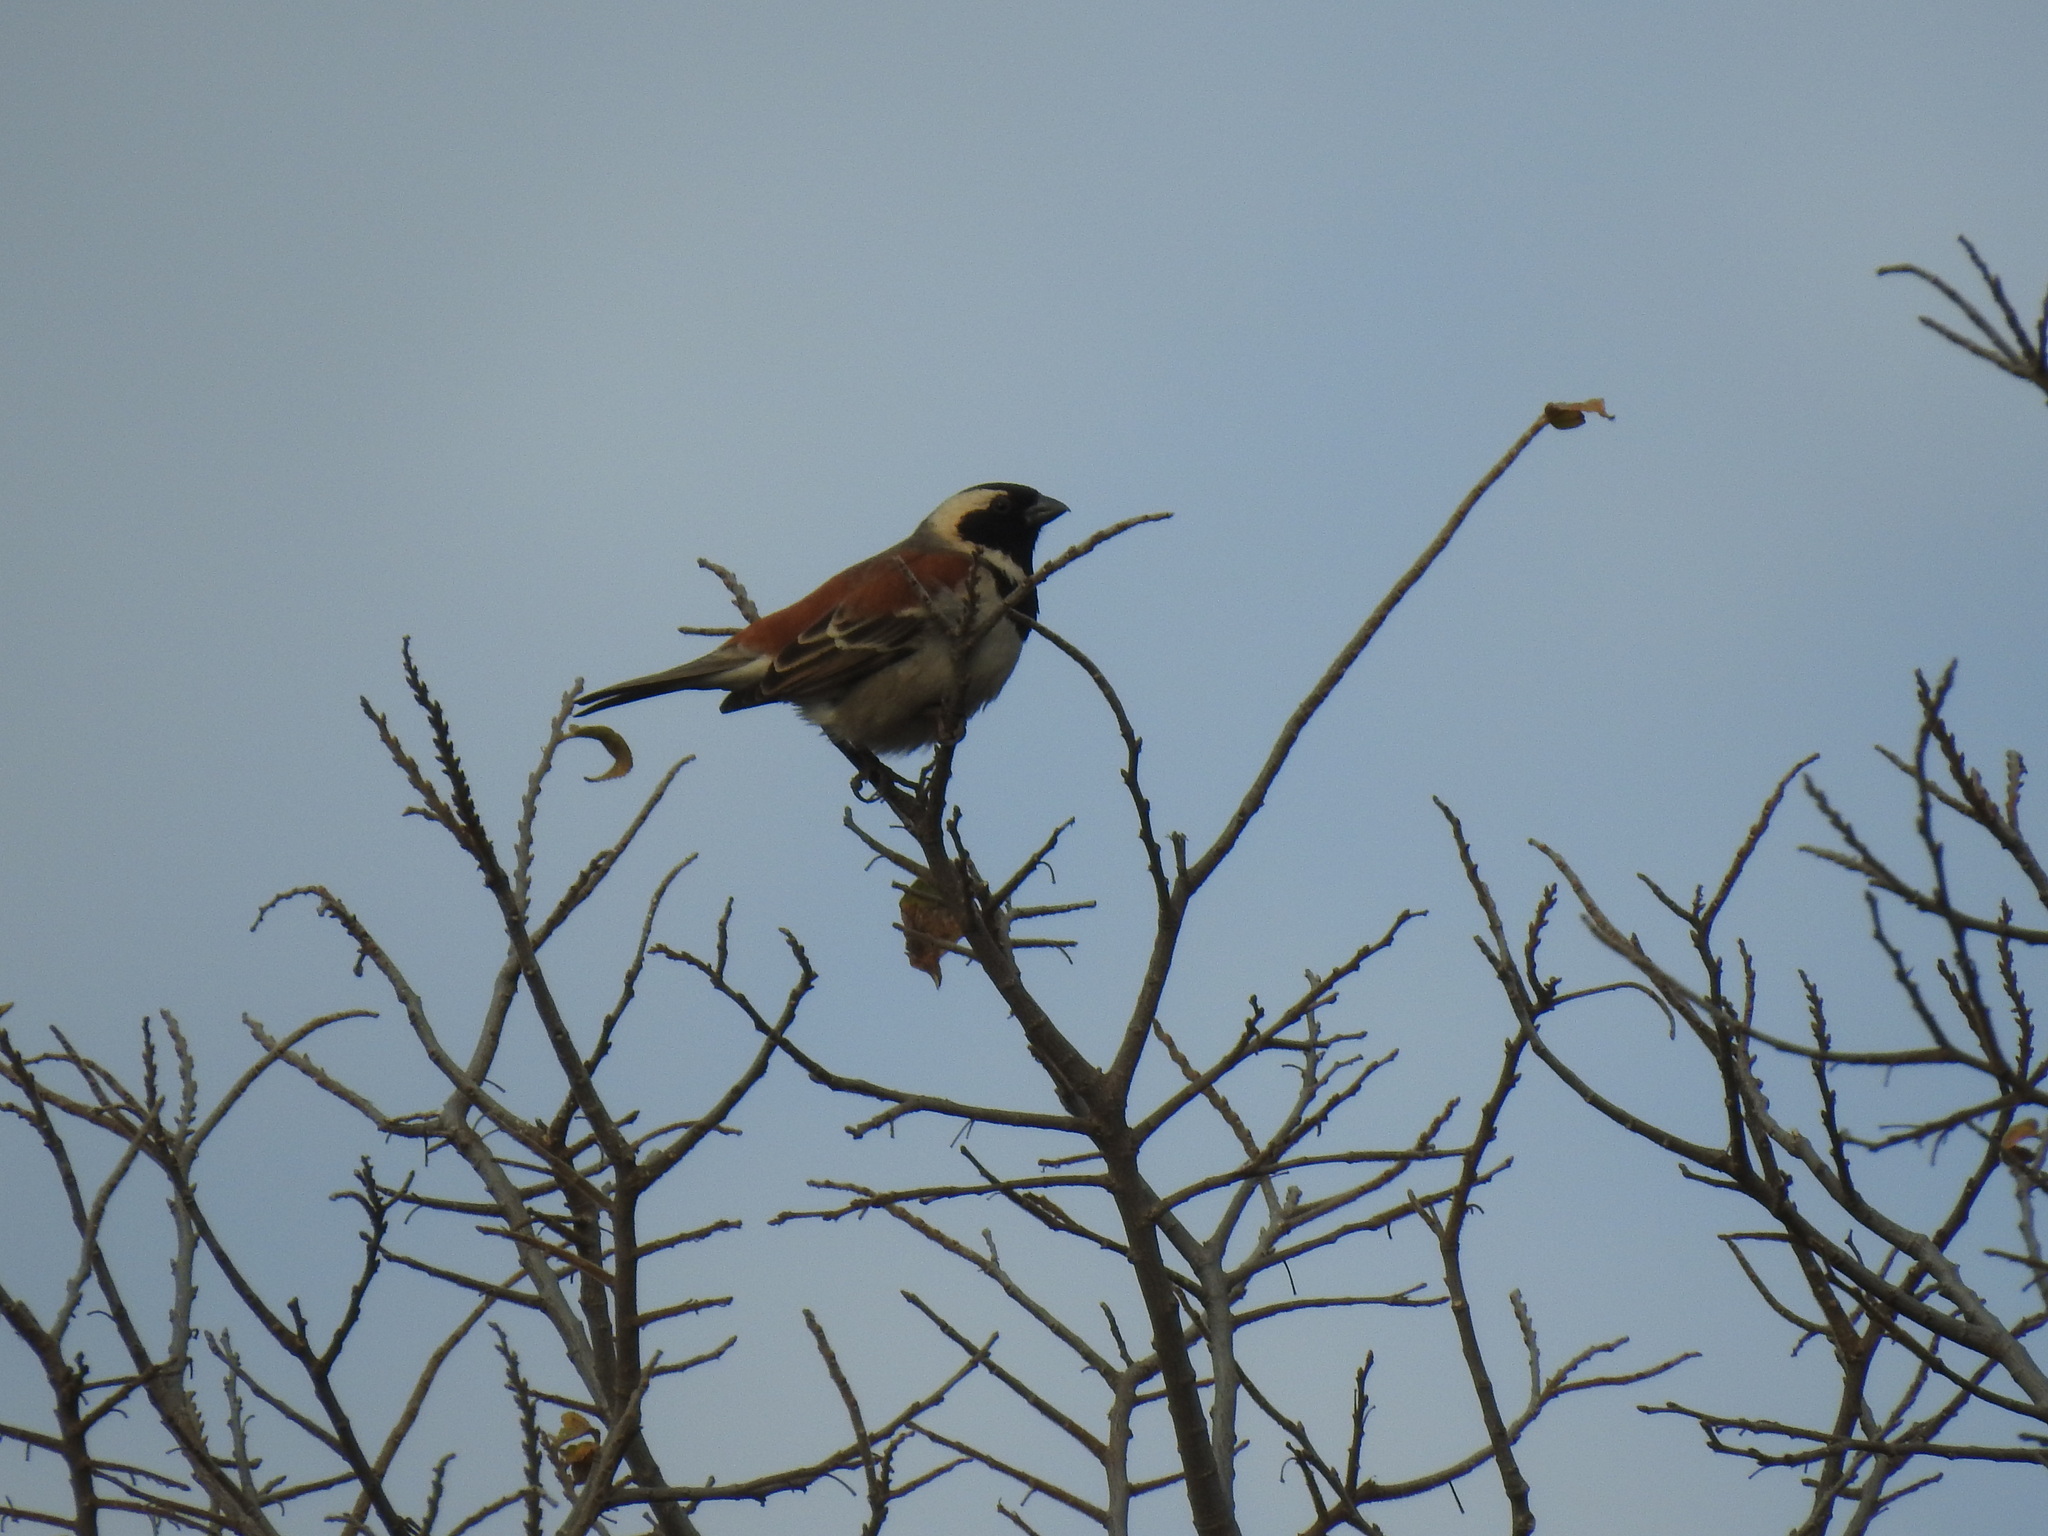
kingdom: Animalia
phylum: Chordata
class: Aves
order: Passeriformes
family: Passeridae
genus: Passer
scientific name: Passer melanurus
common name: Cape sparrow
